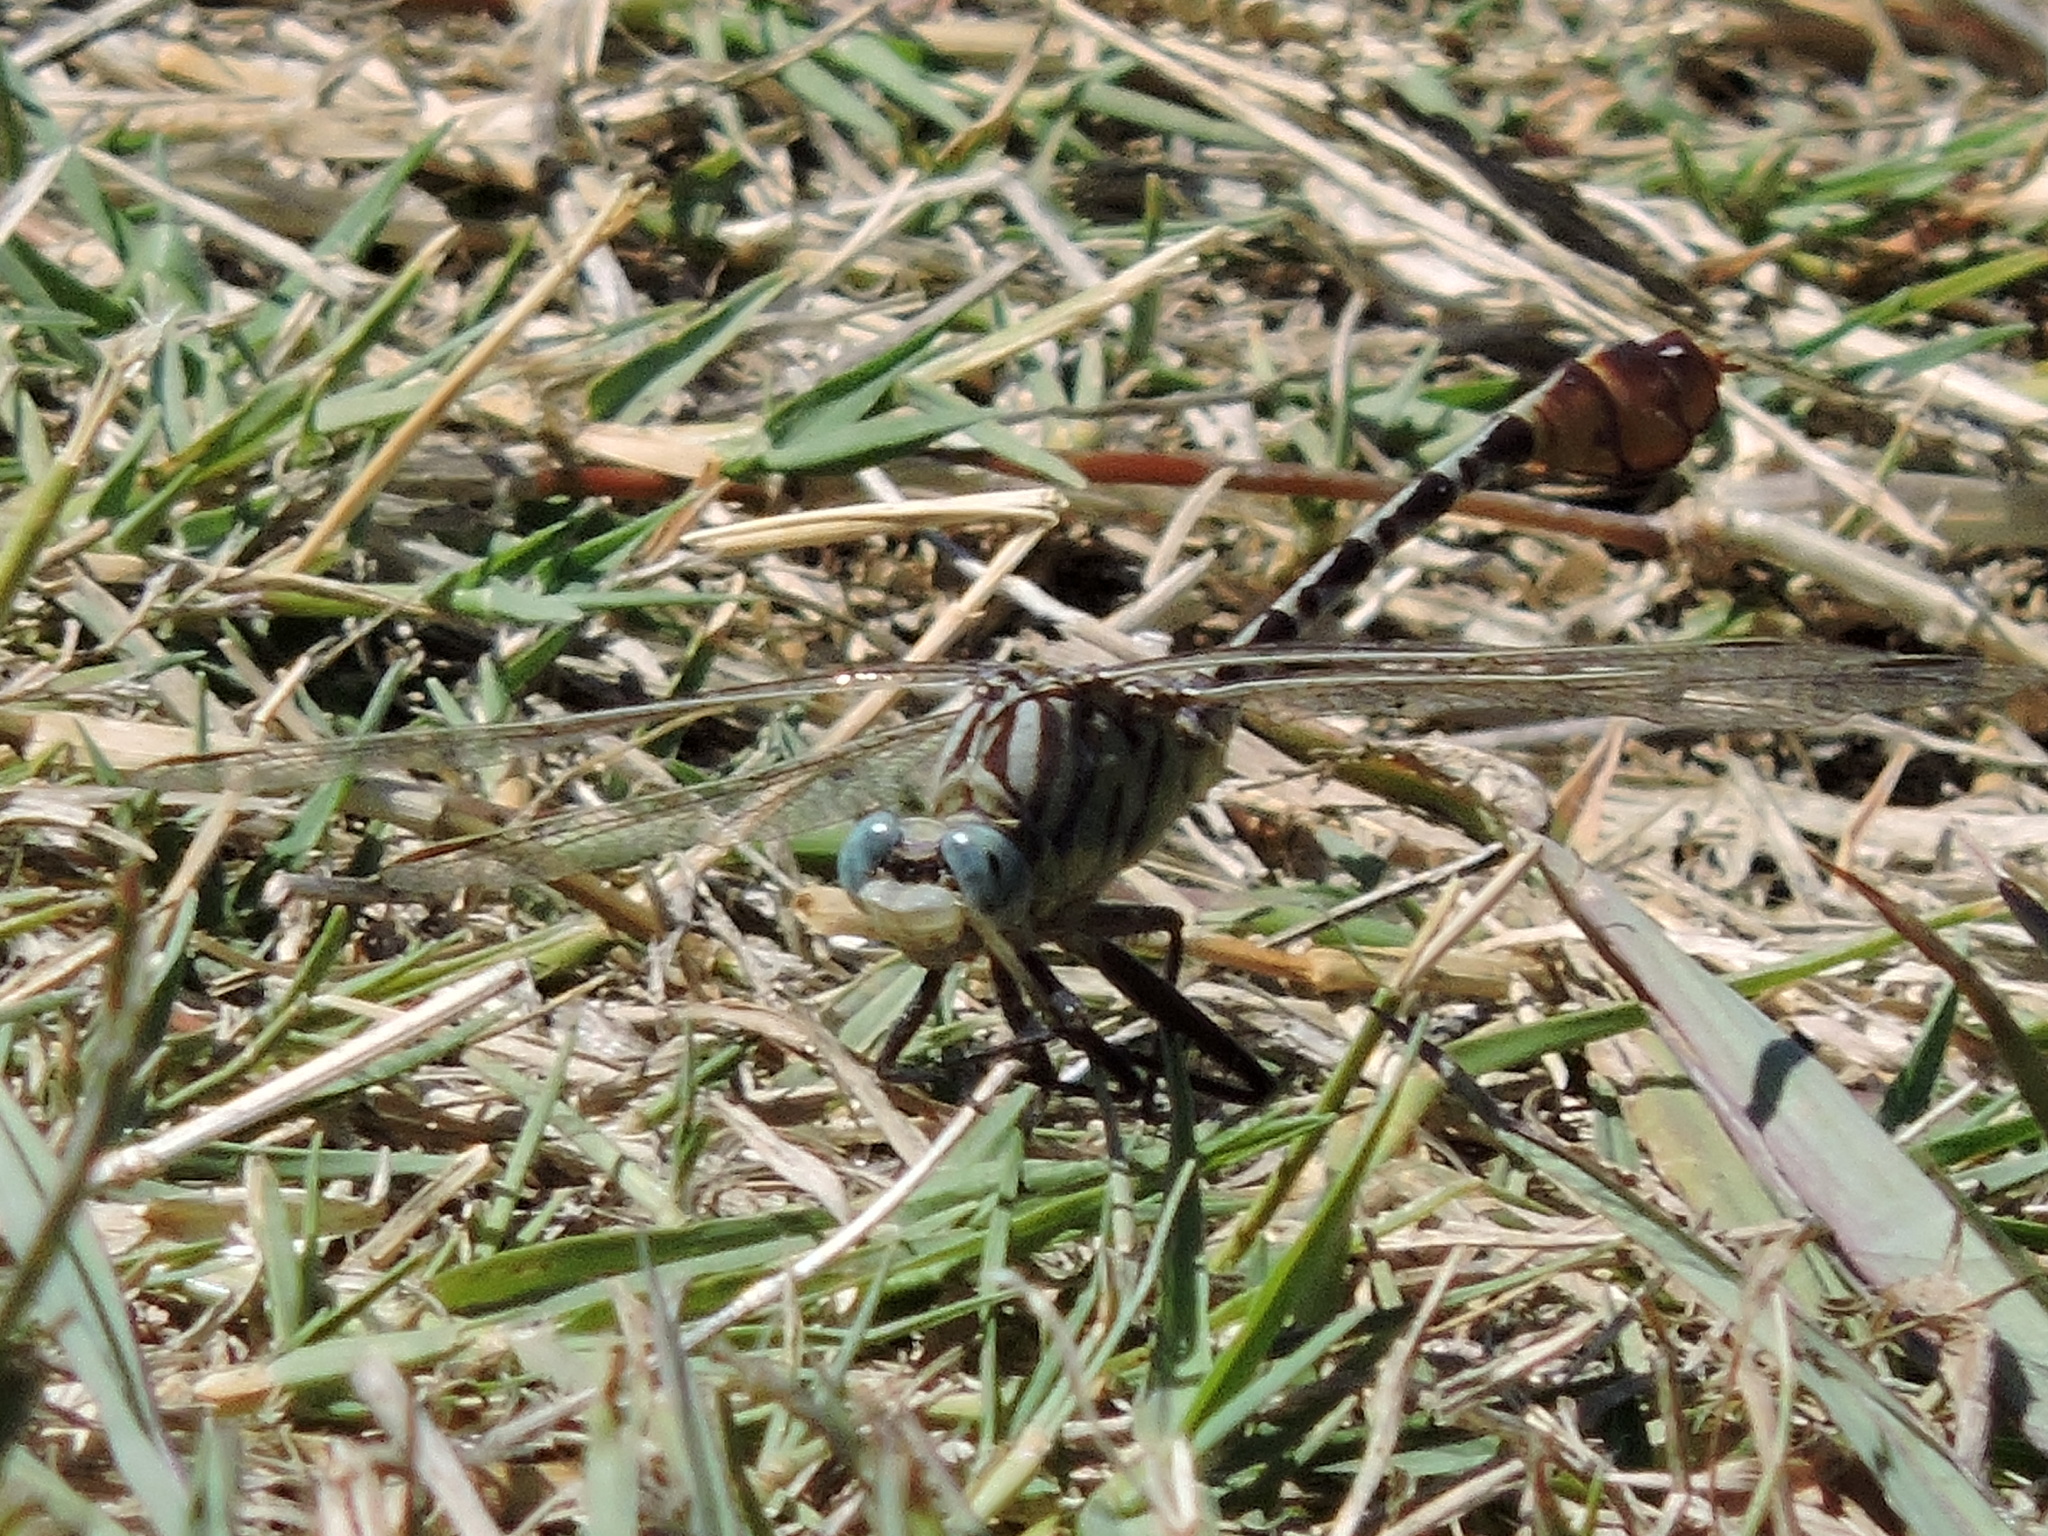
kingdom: Animalia
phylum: Arthropoda
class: Insecta
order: Odonata
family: Gomphidae
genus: Dromogomphus
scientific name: Dromogomphus spoliatus
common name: Flag-tailed spinyleg
